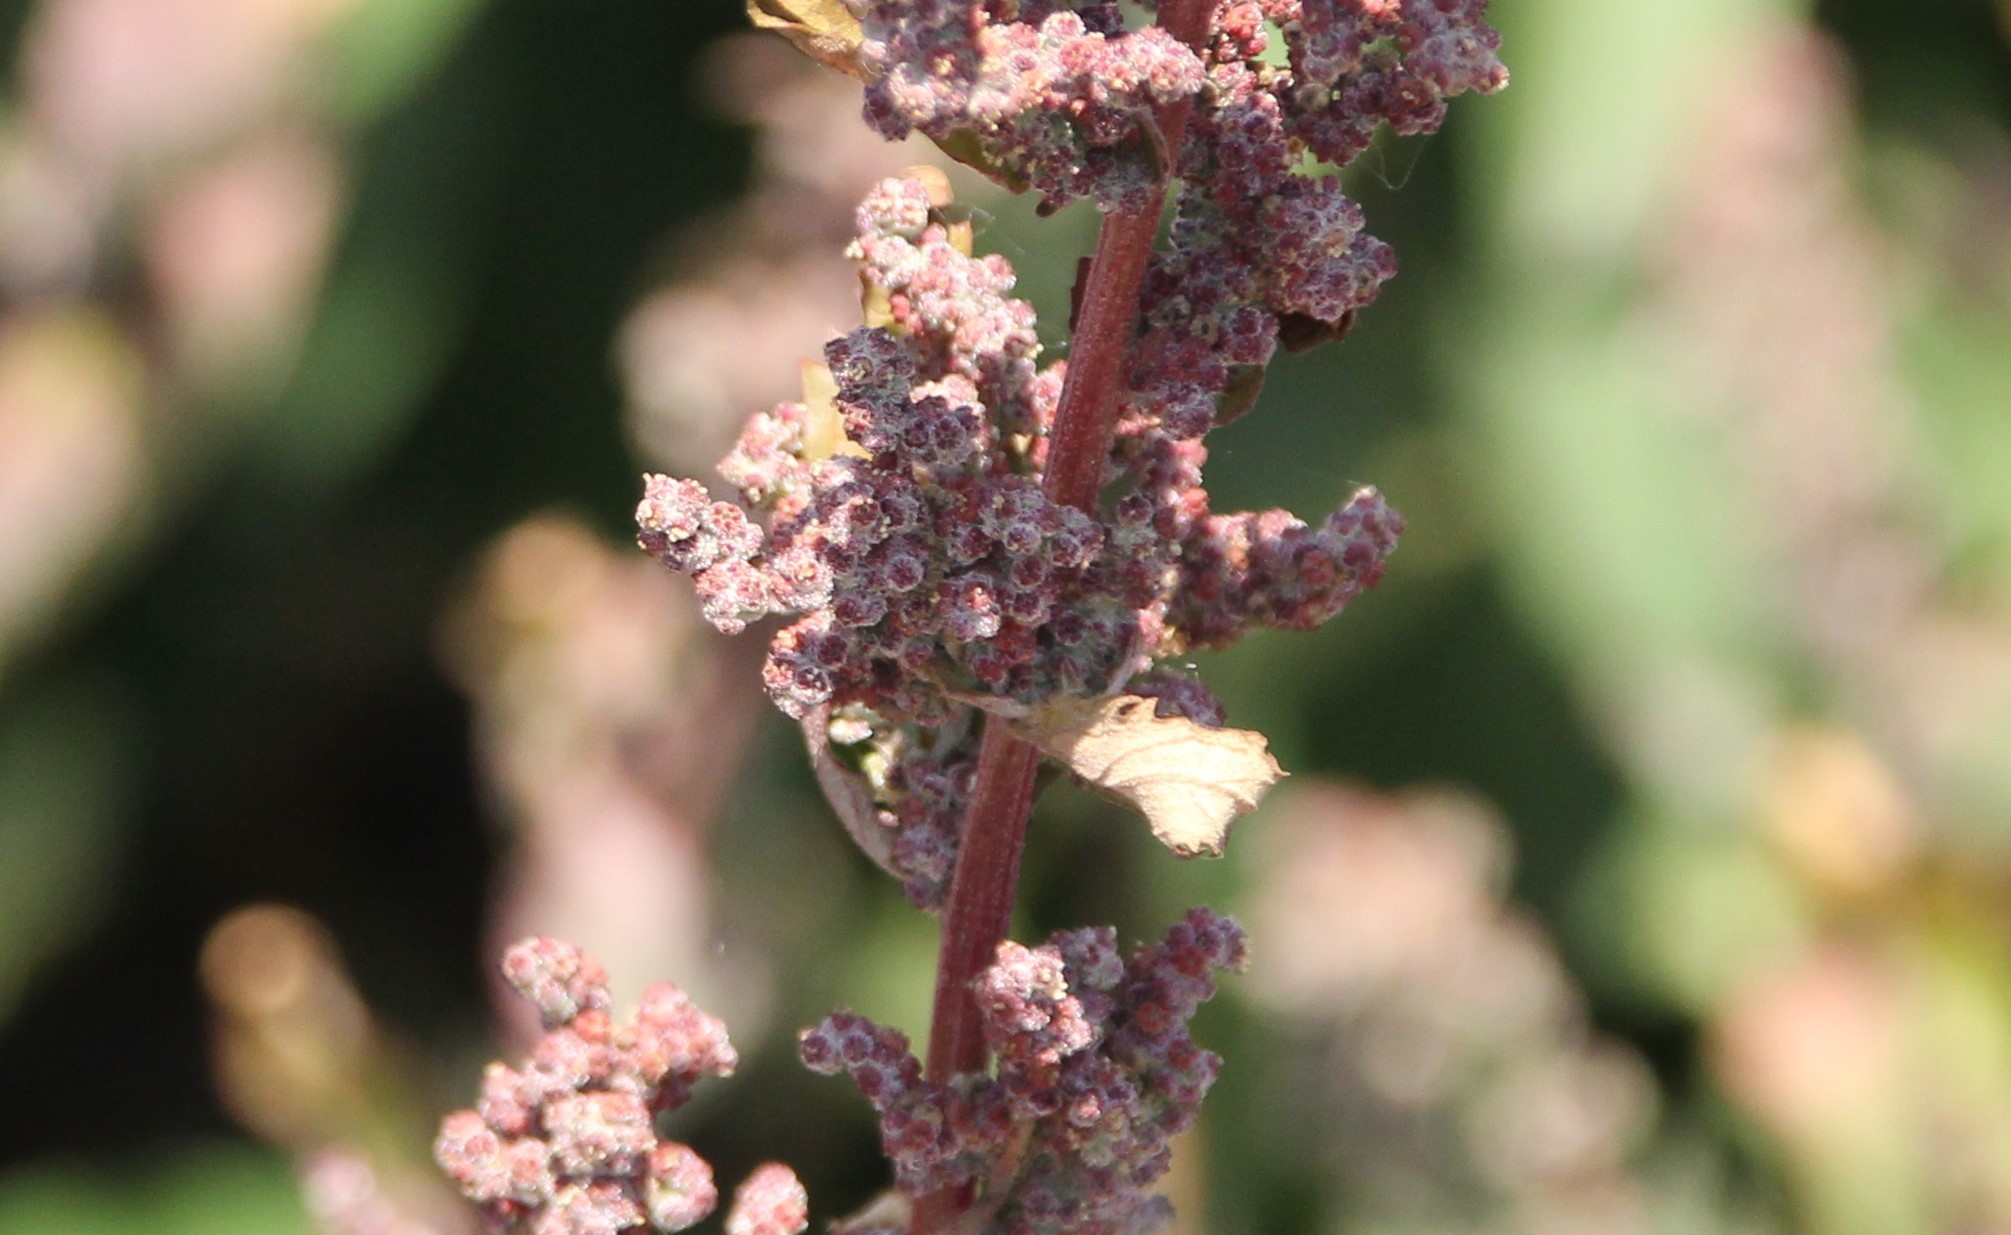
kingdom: Plantae
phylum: Tracheophyta
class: Magnoliopsida
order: Caryophyllales
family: Amaranthaceae
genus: Chenopodiastrum
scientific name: Chenopodiastrum murale
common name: Sowbane
